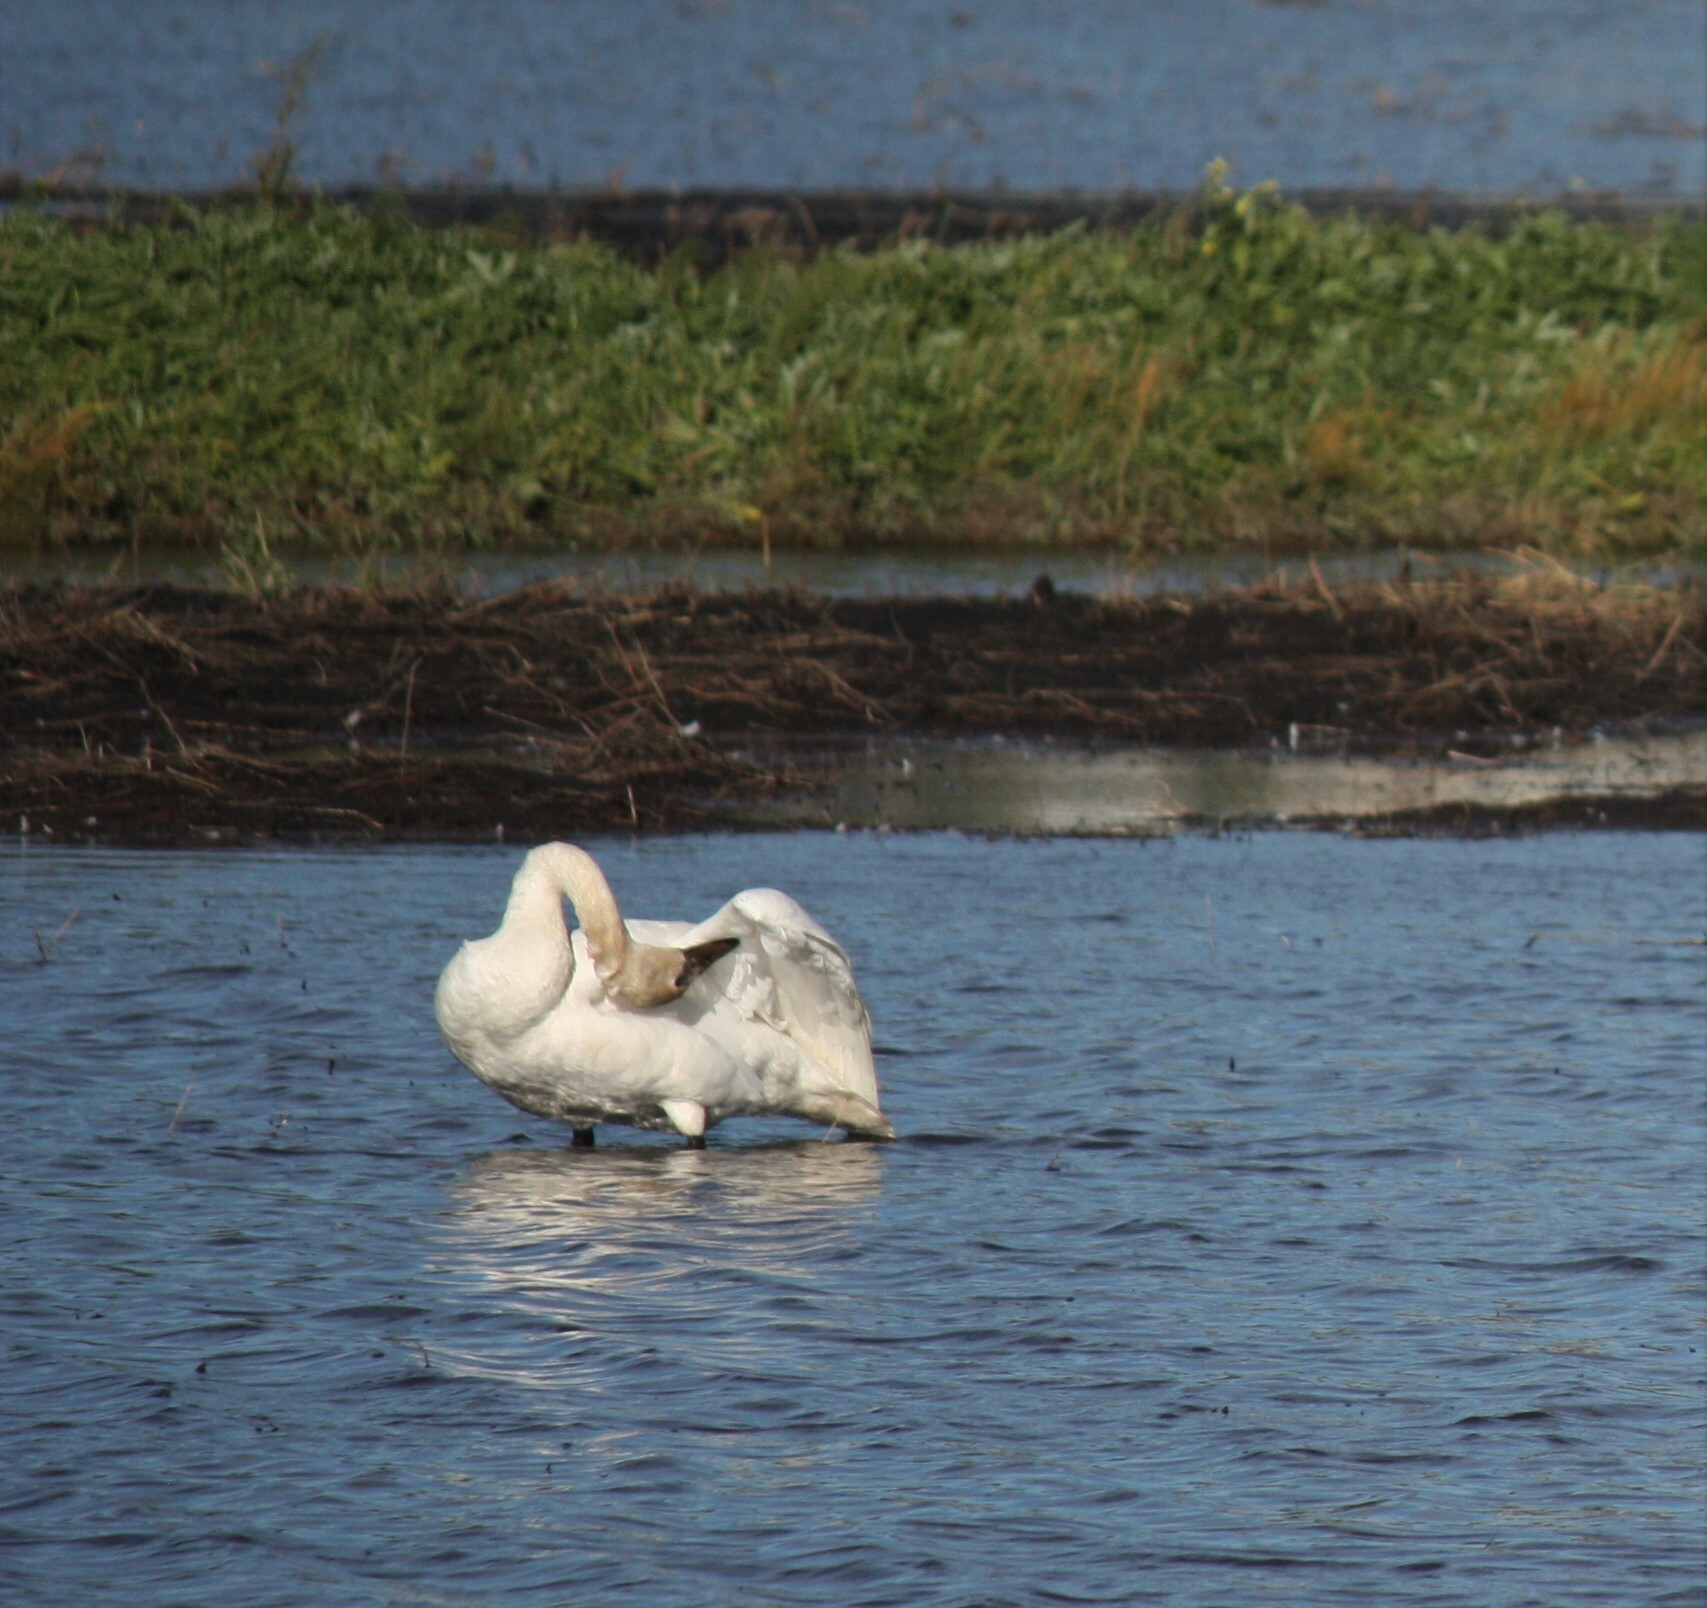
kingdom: Animalia
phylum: Chordata
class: Aves
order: Anseriformes
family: Anatidae
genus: Cygnus
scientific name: Cygnus buccinator
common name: Trumpeter swan
